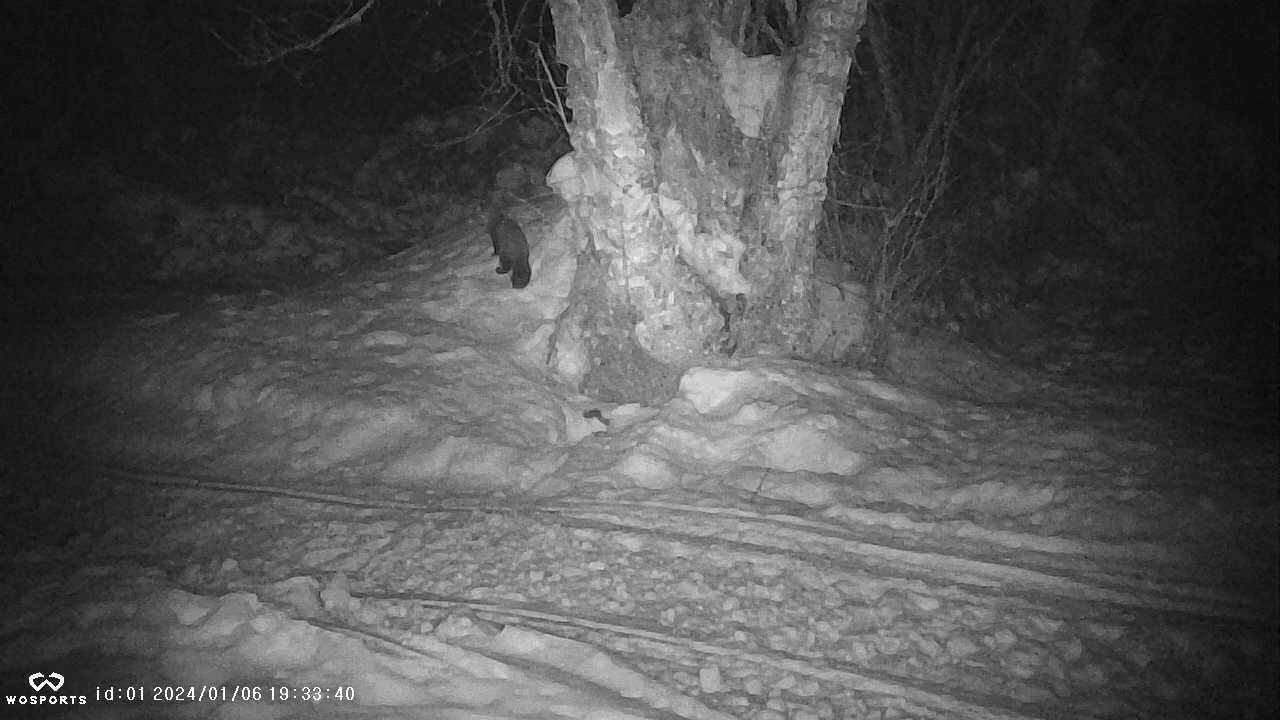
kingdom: Animalia
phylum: Chordata
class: Mammalia
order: Carnivora
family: Mustelidae
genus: Martes
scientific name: Martes americana
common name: American marten
